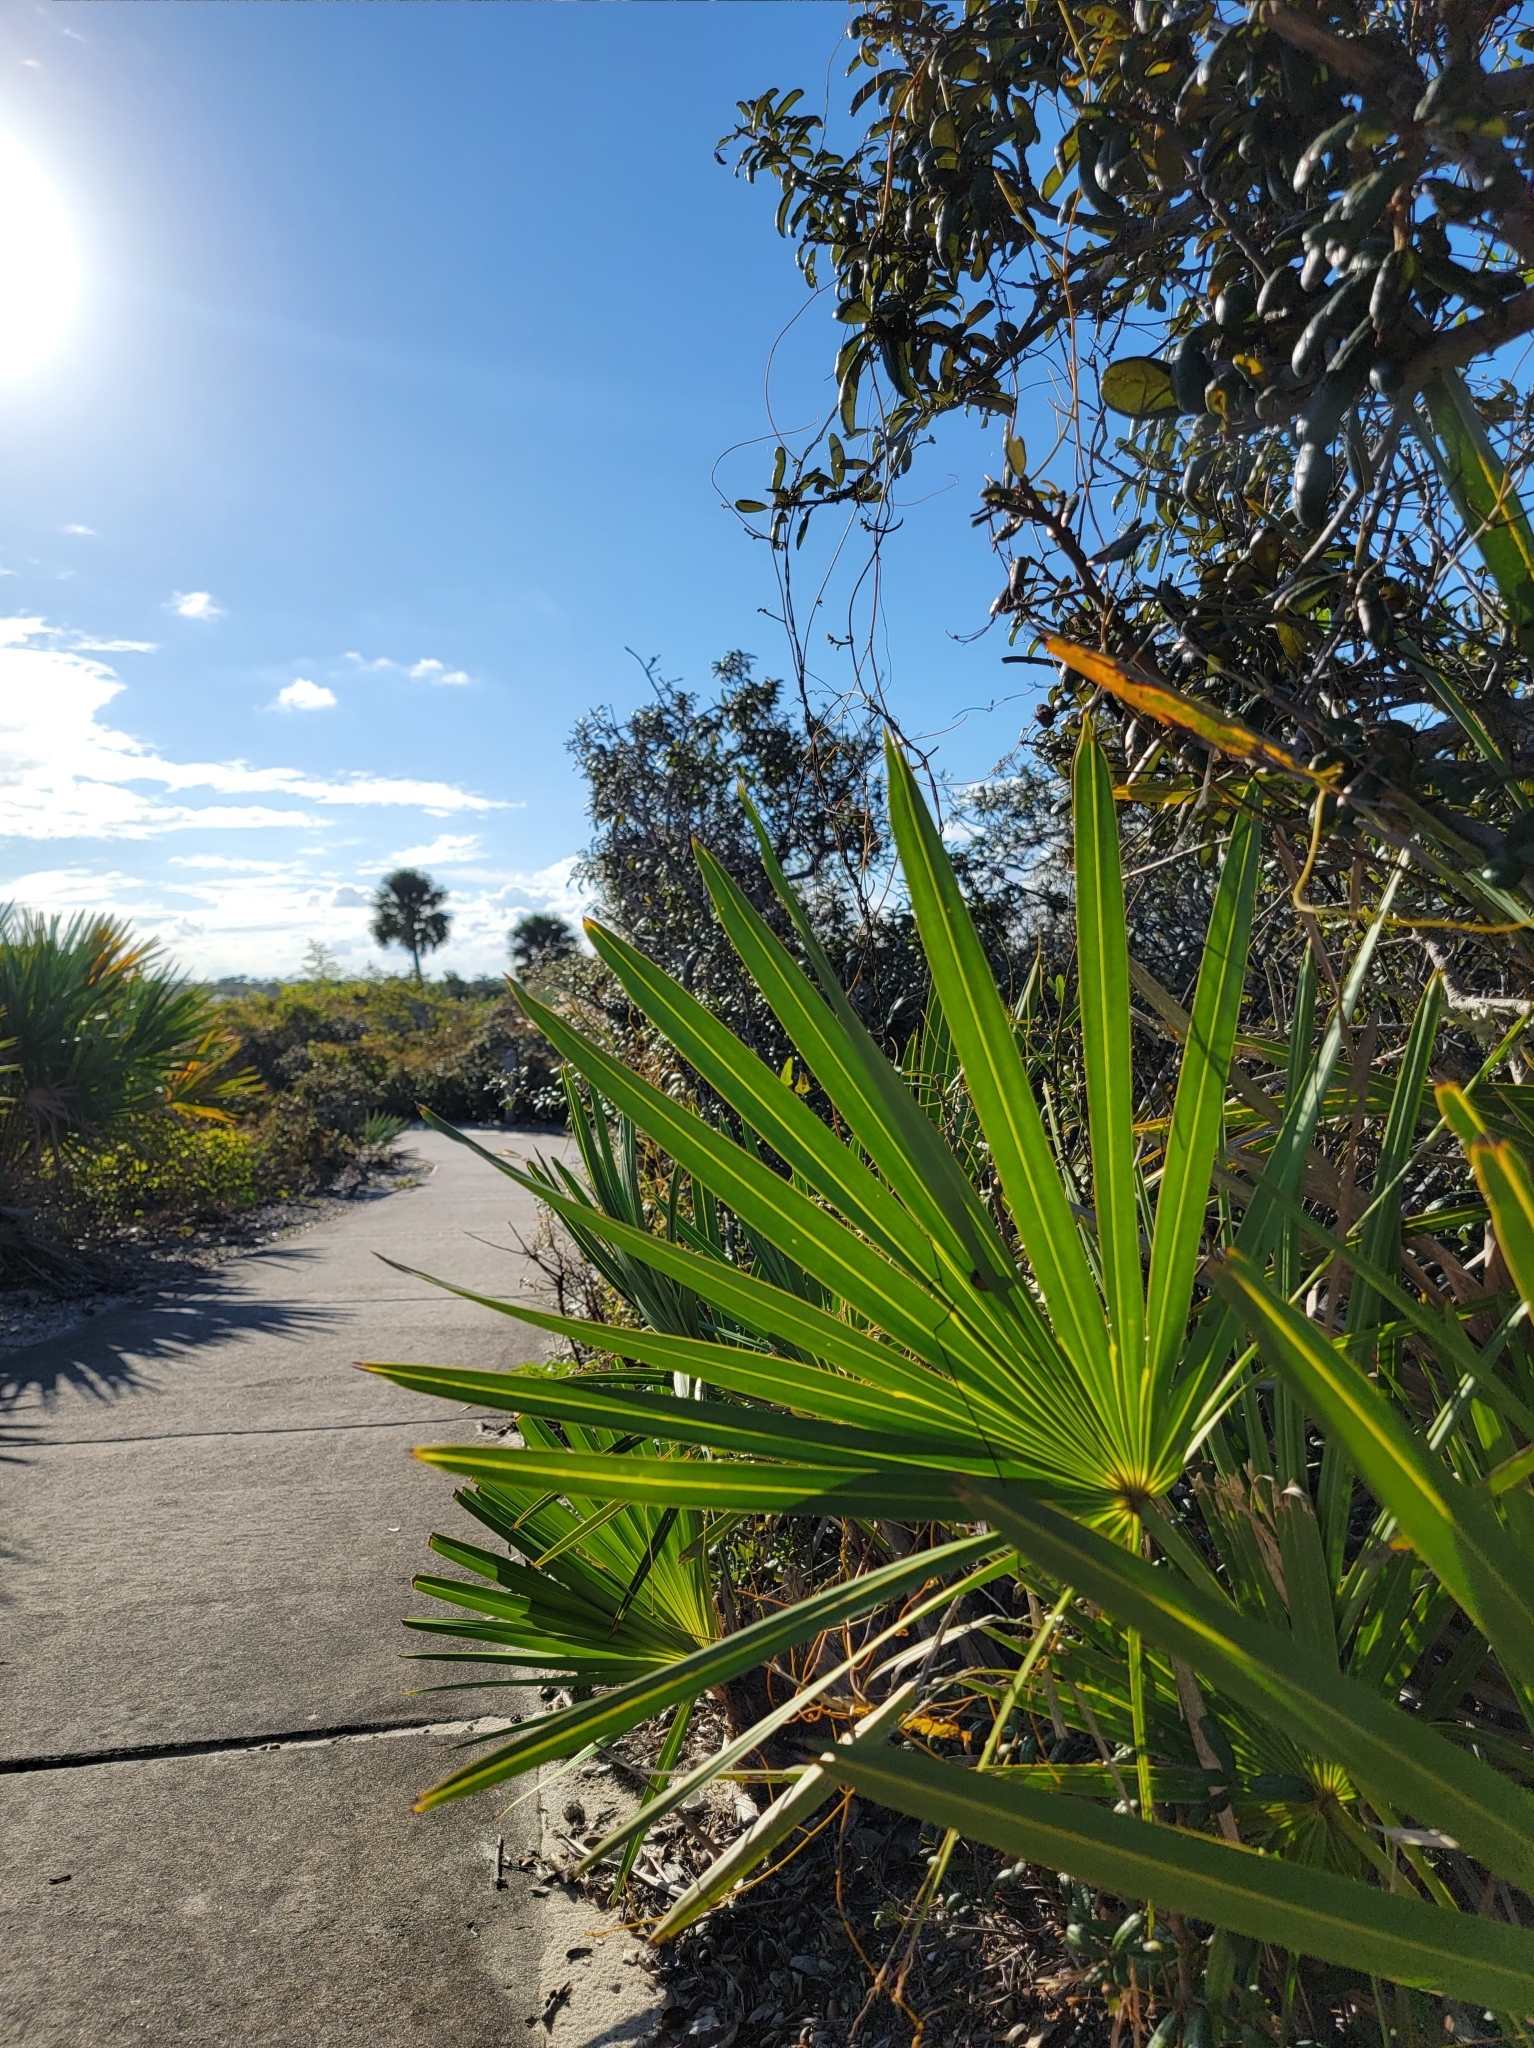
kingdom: Plantae
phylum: Tracheophyta
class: Liliopsida
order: Arecales
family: Arecaceae
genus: Serenoa
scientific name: Serenoa repens
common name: Saw-palmetto
